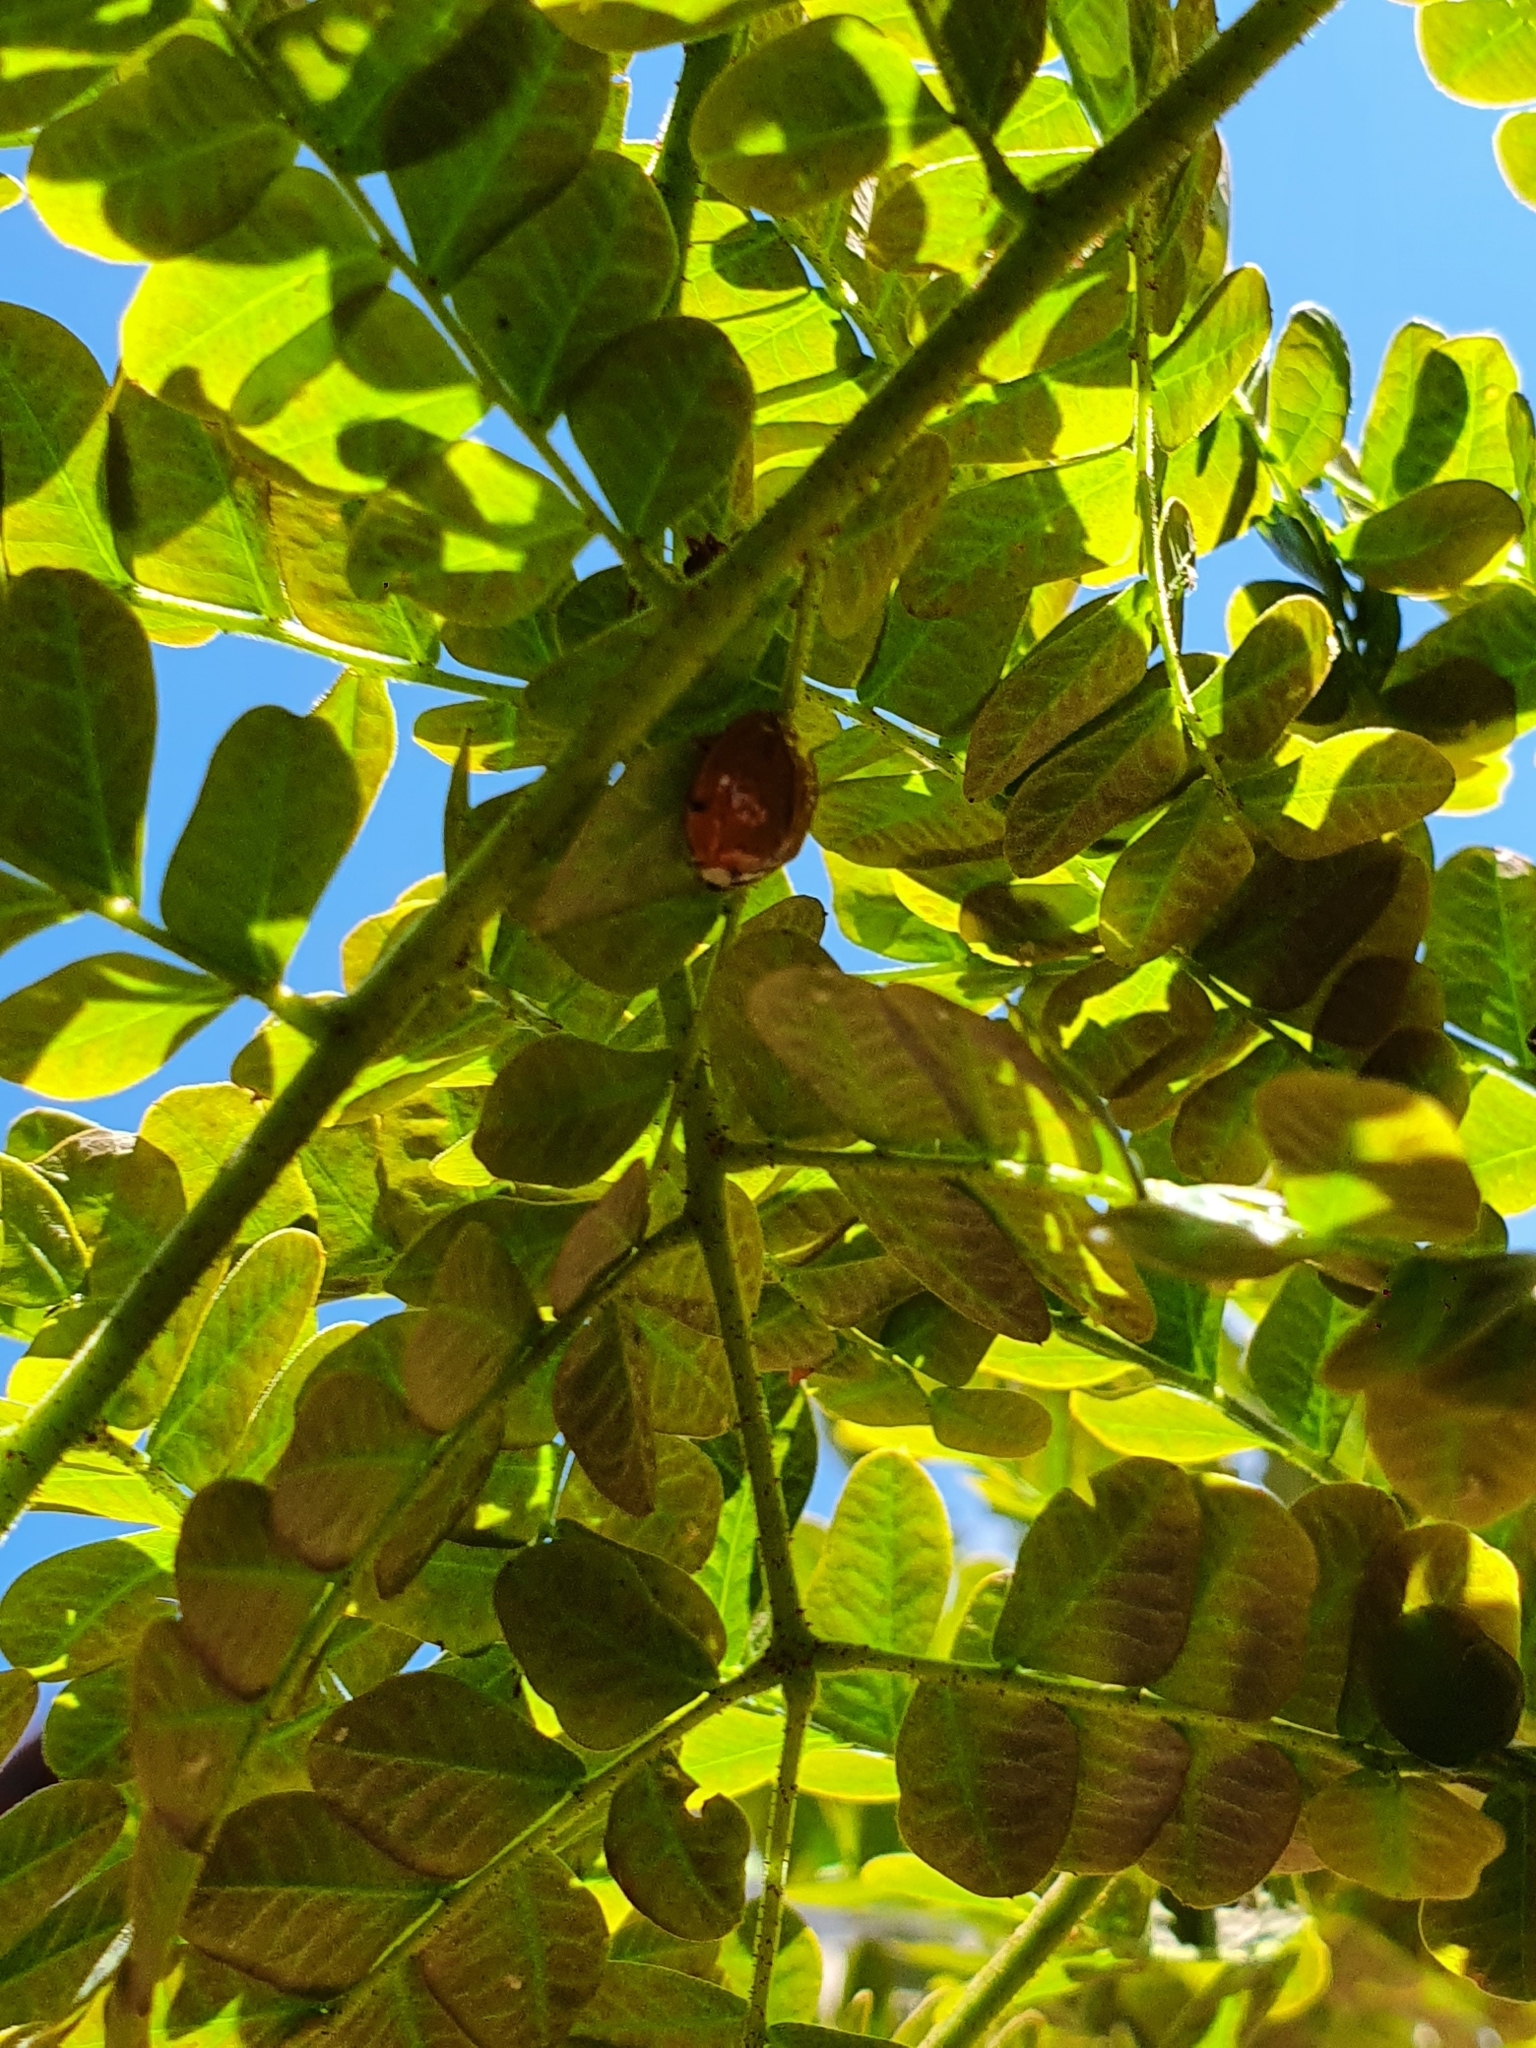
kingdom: Animalia
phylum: Arthropoda
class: Insecta
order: Coleoptera
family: Coccinellidae
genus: Harmonia
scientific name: Harmonia axyridis
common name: Harlequin ladybird
